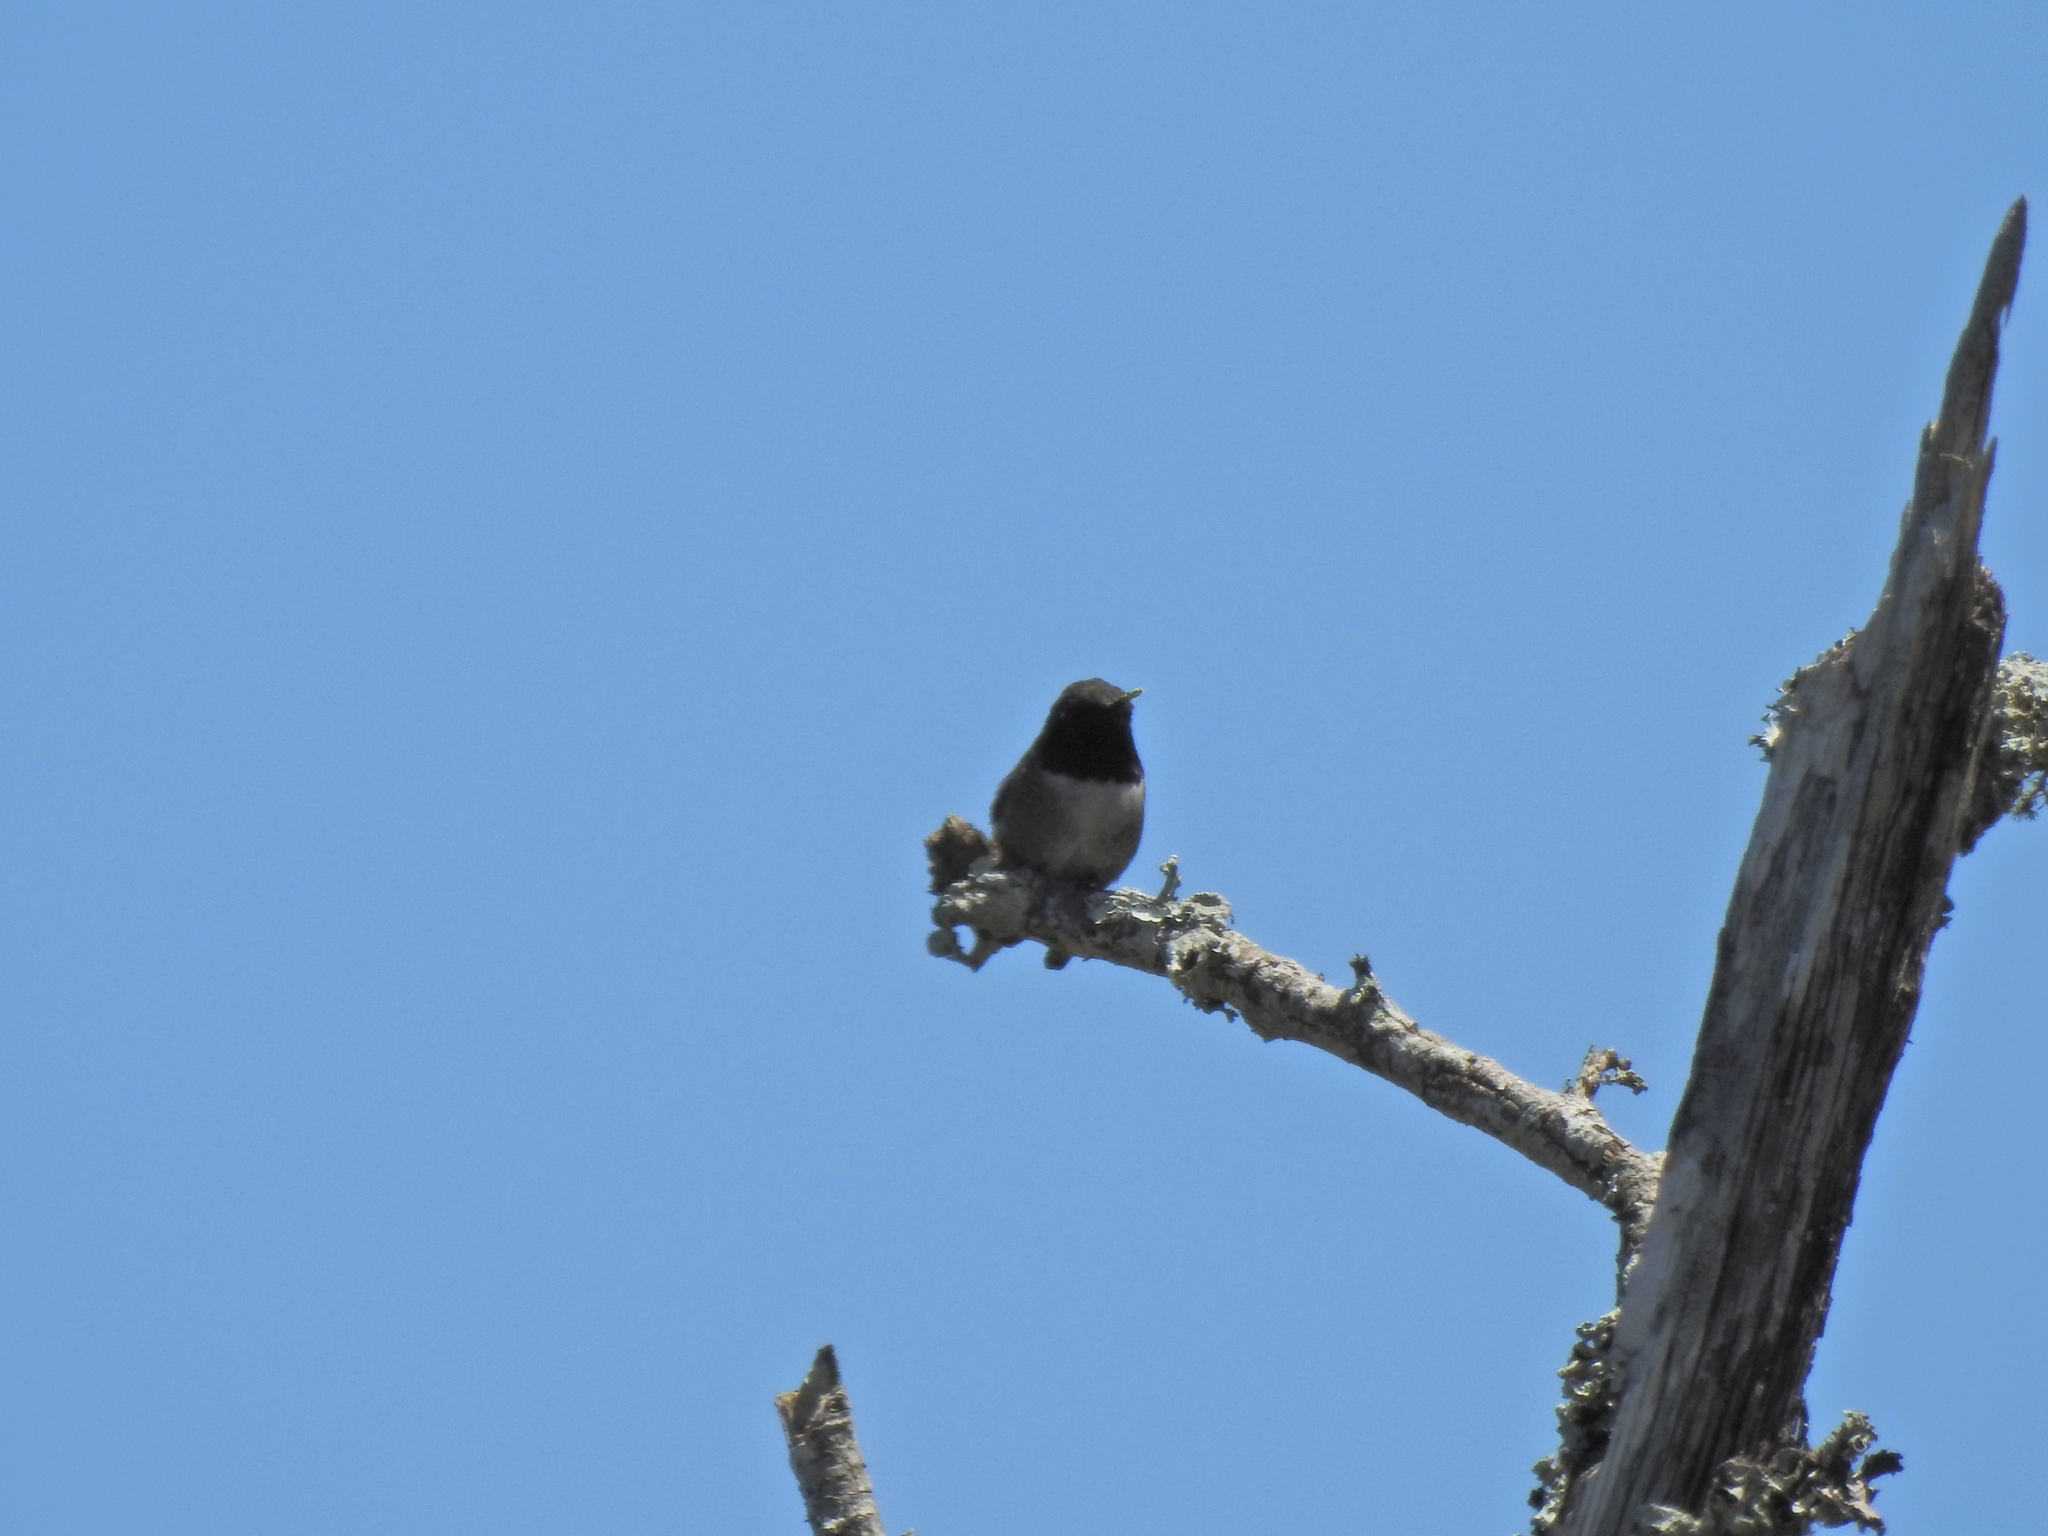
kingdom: Animalia
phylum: Chordata
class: Aves
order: Apodiformes
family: Trochilidae
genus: Archilochus
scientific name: Archilochus alexandri
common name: Black-chinned hummingbird
